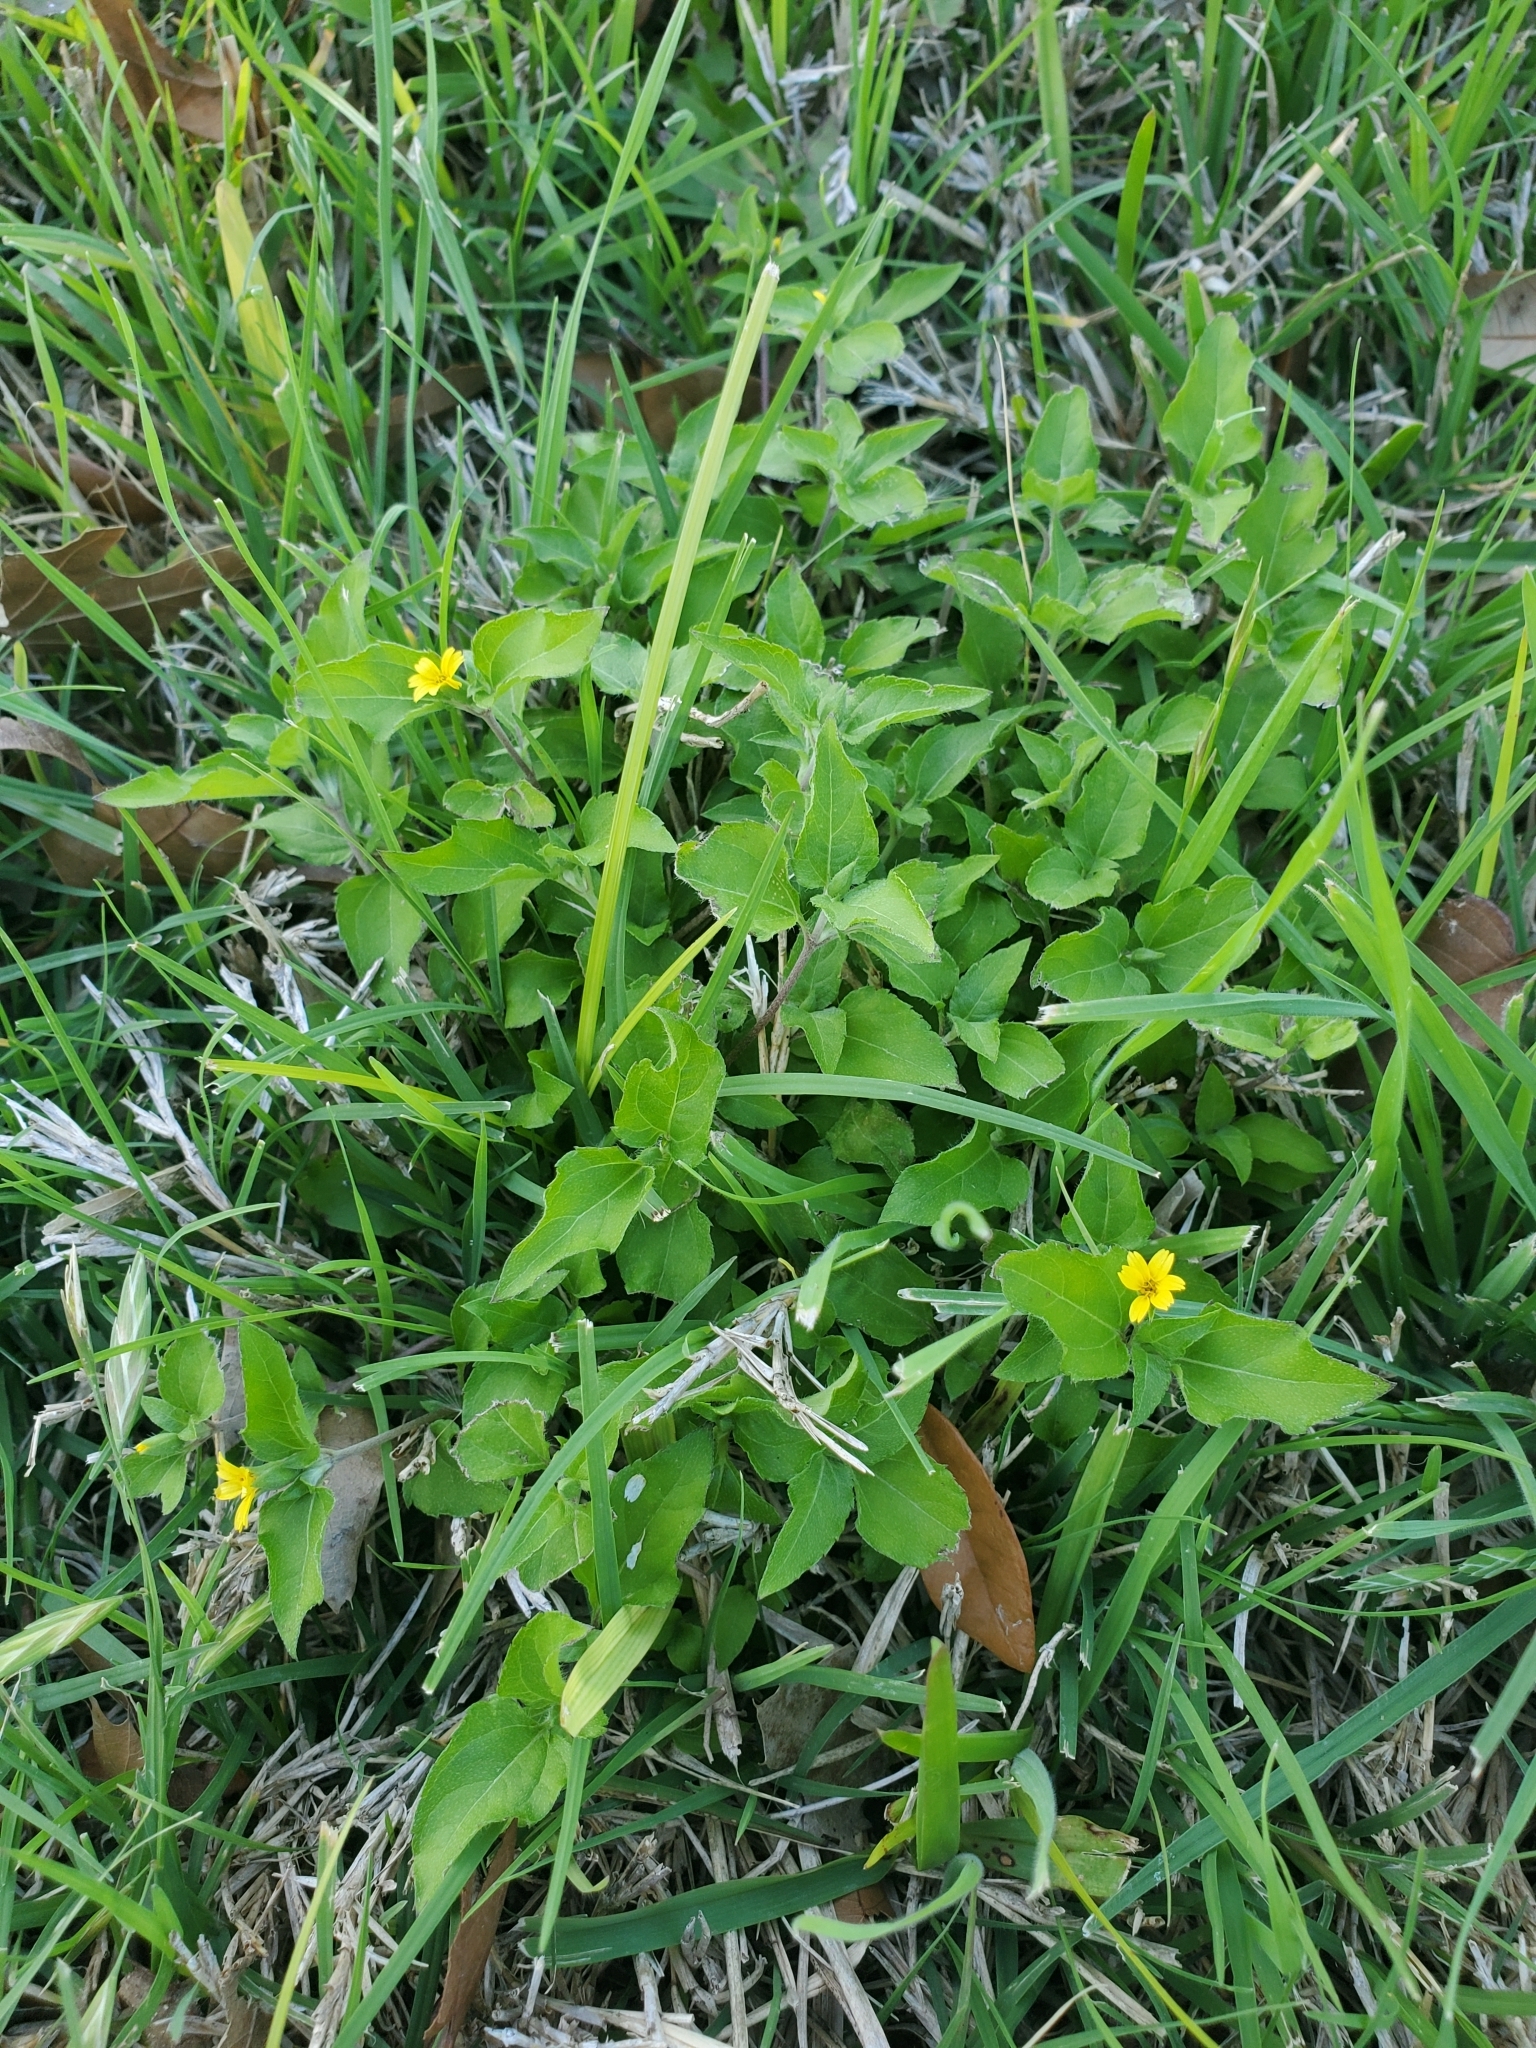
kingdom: Plantae
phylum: Tracheophyta
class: Magnoliopsida
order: Asterales
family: Asteraceae
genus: Calyptocarpus
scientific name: Calyptocarpus vialis
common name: Straggler daisy
